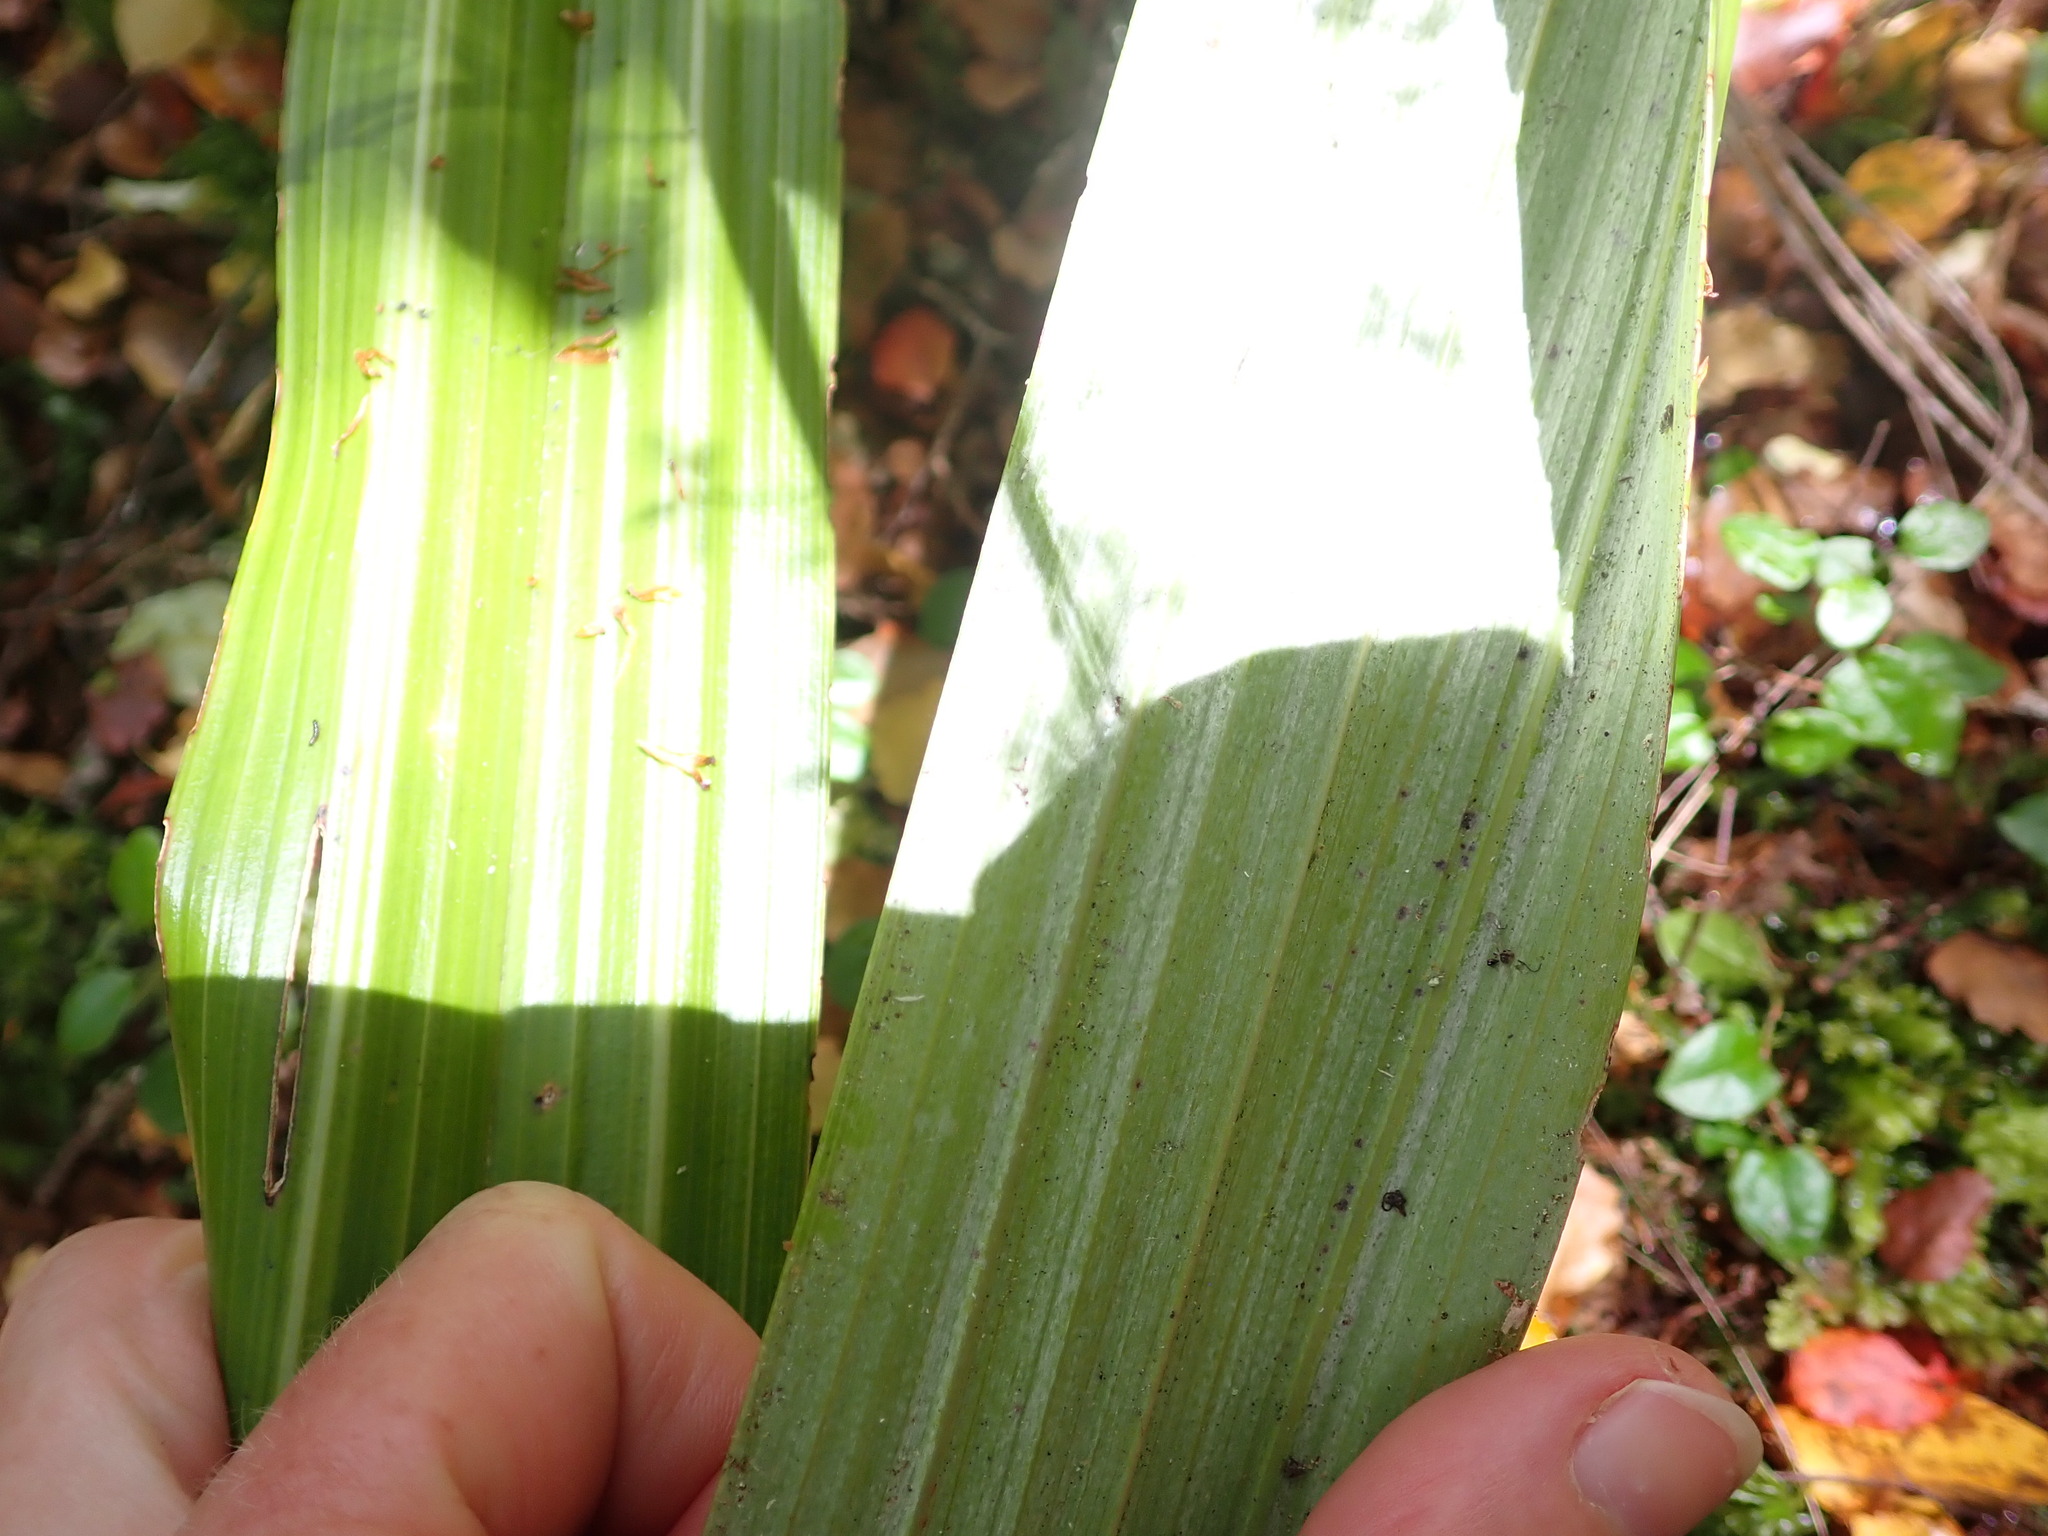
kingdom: Plantae
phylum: Tracheophyta
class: Liliopsida
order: Asparagales
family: Asteliaceae
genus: Astelia
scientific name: Astelia grandis
